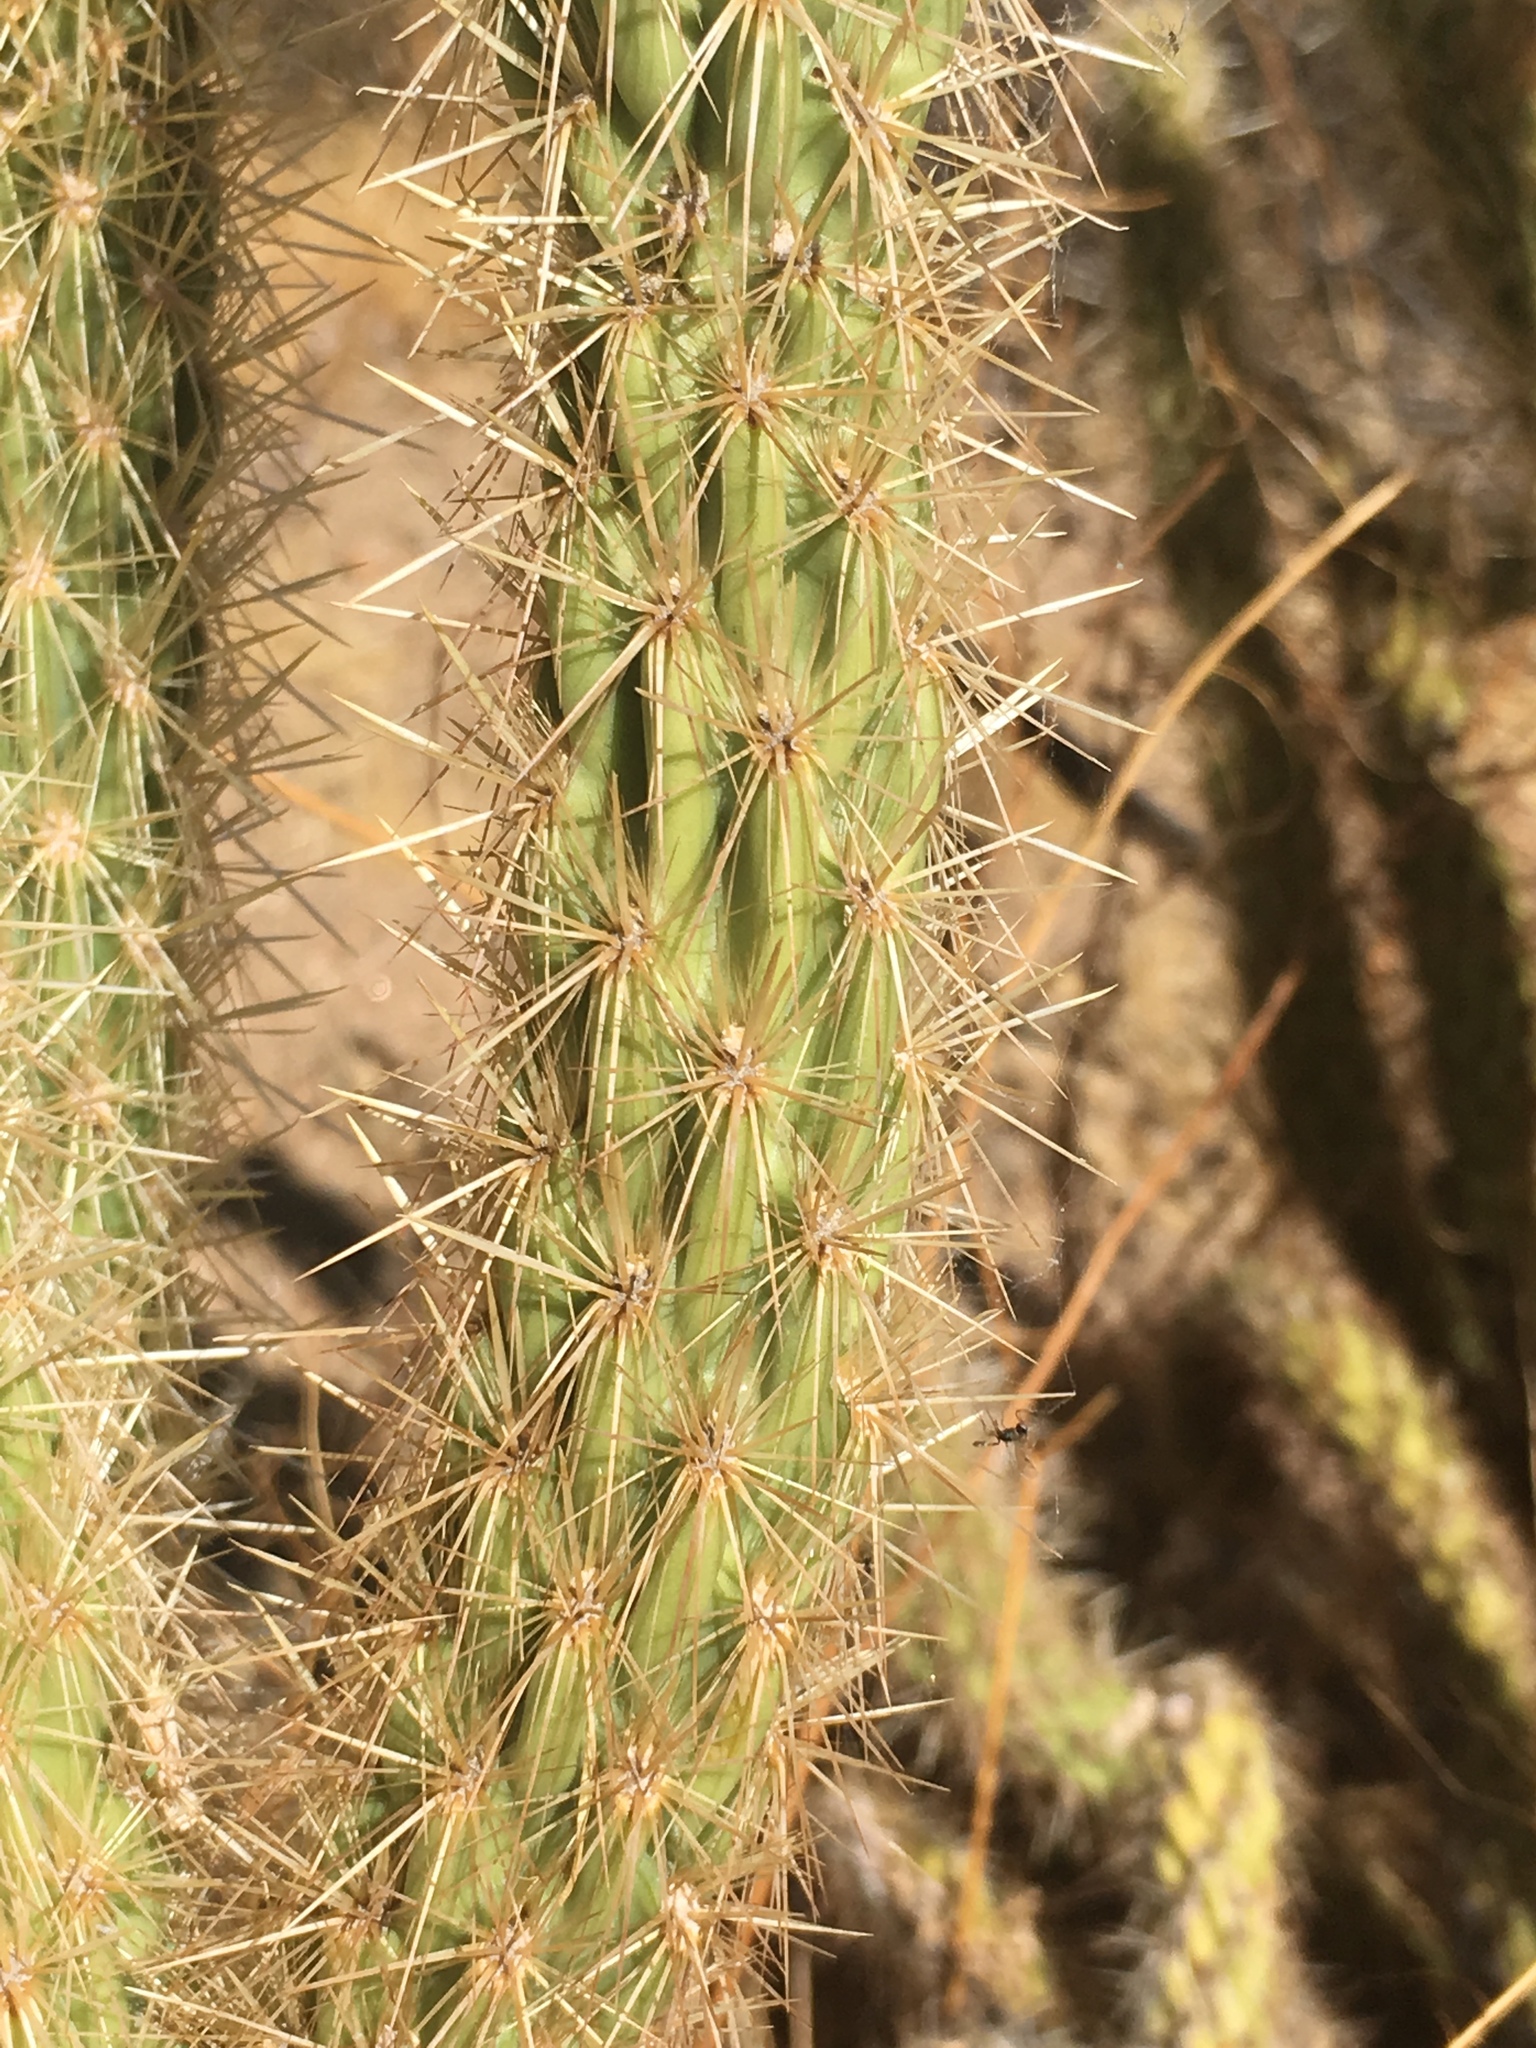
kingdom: Plantae
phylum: Tracheophyta
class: Magnoliopsida
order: Caryophyllales
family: Cactaceae
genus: Cylindropuntia
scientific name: Cylindropuntia ganderi
